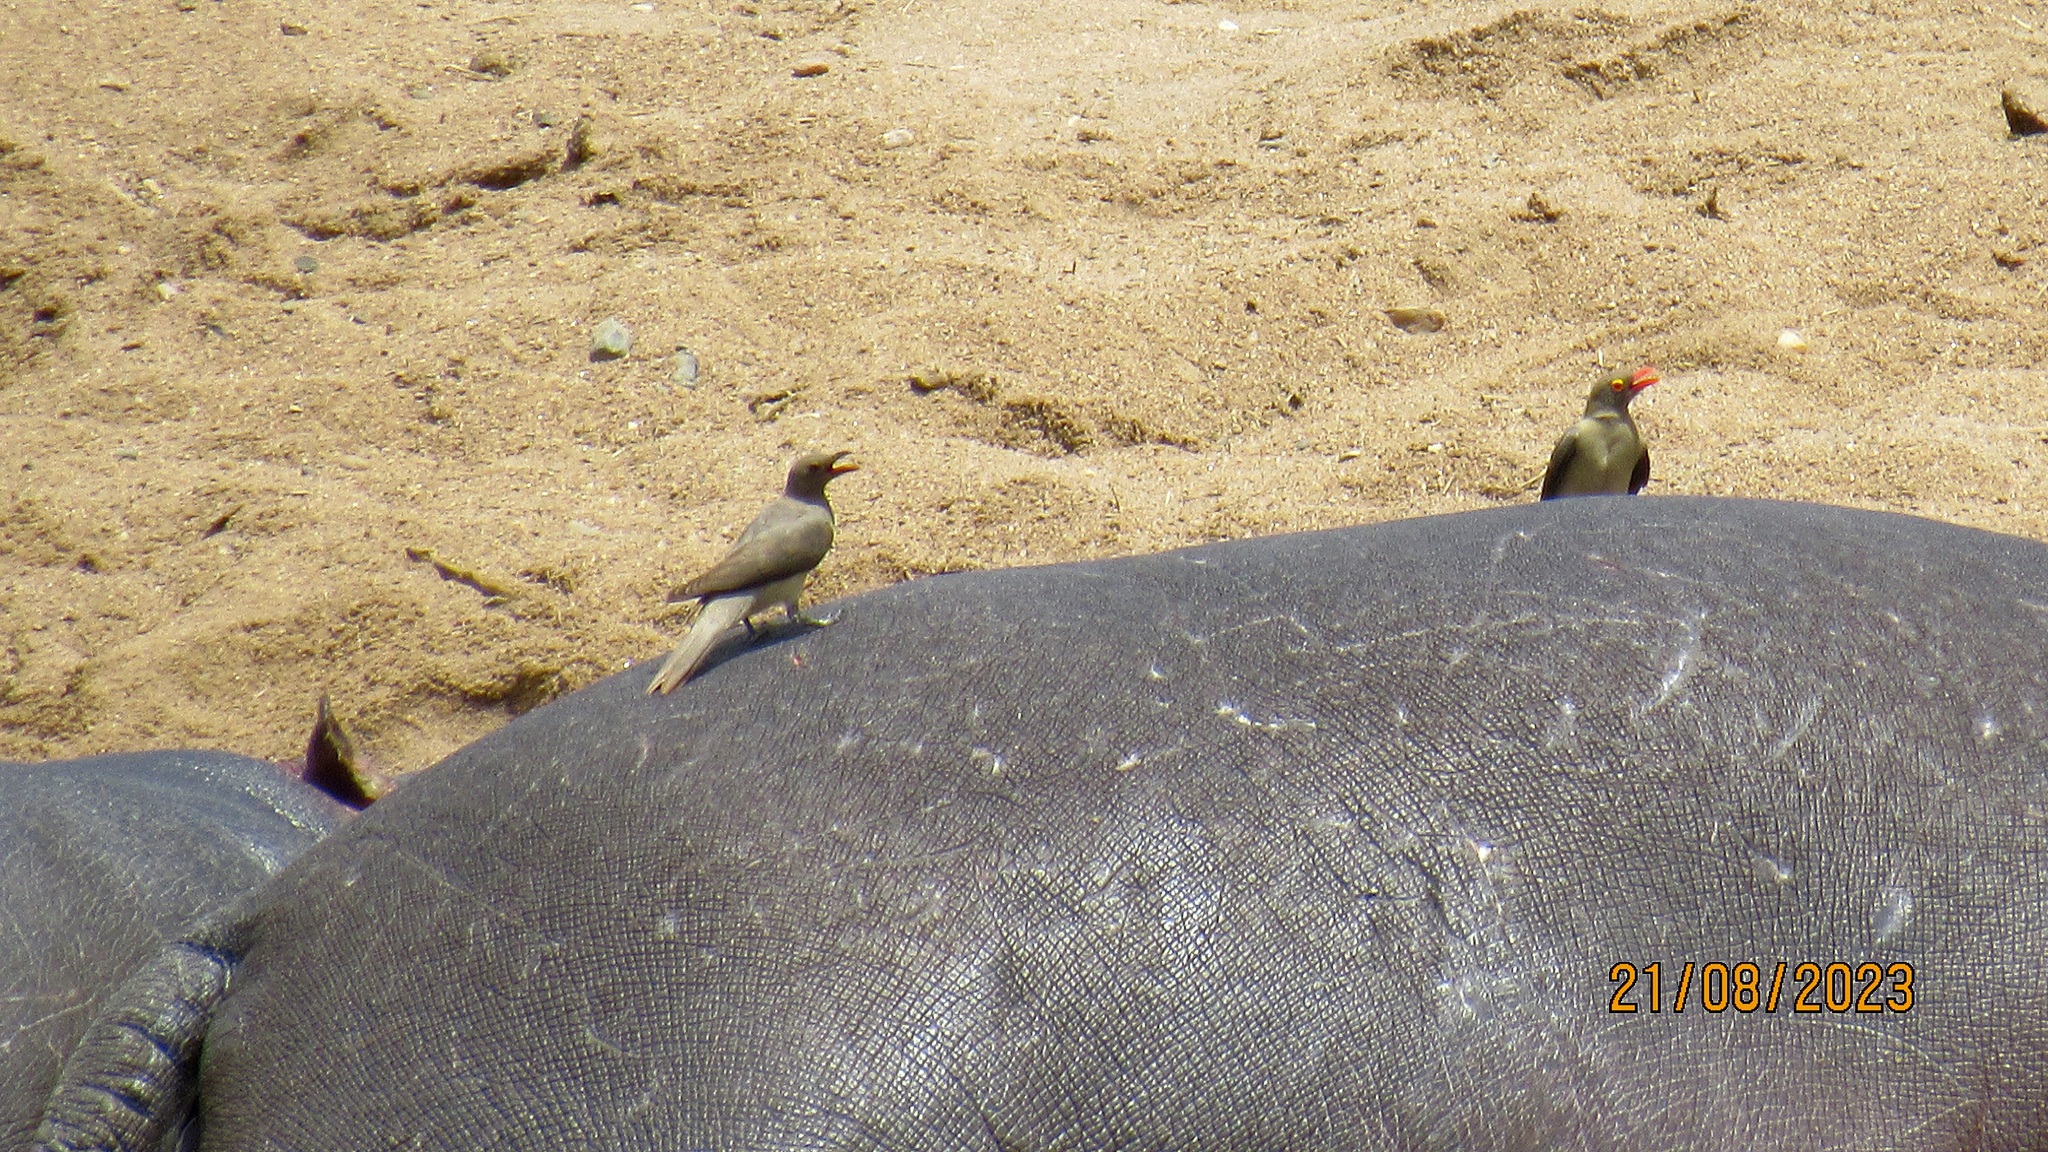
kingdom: Animalia
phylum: Chordata
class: Aves
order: Passeriformes
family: Buphagidae
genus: Buphagus
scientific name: Buphagus erythrorhynchus
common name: Red-billed oxpecker
